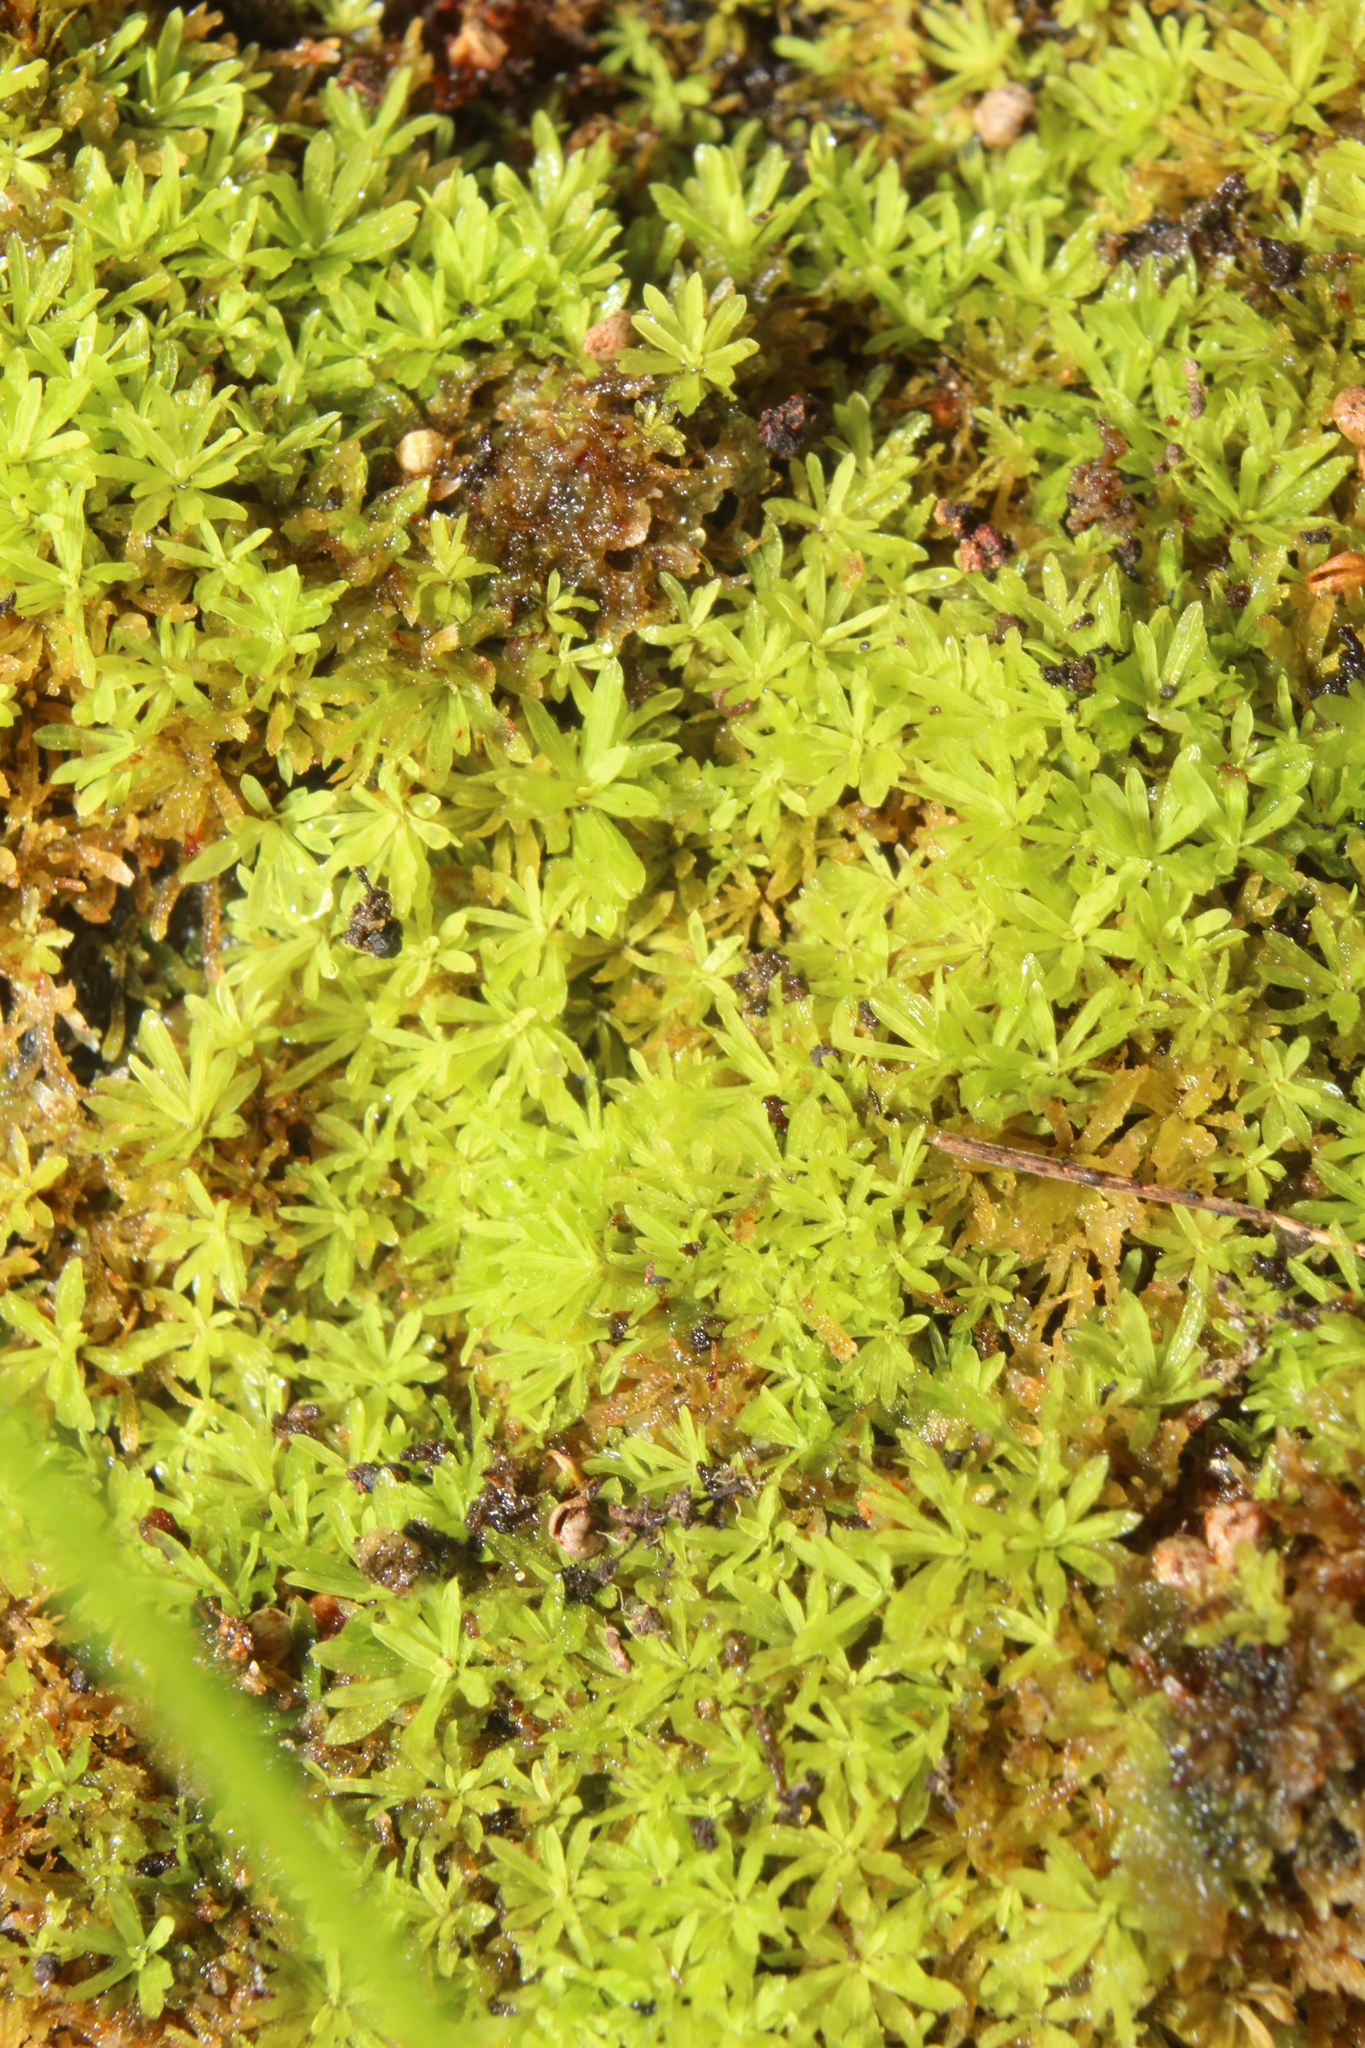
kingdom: Plantae
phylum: Bryophyta
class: Bryopsida
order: Pottiales
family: Pottiaceae
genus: Calymperastrum
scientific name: Calymperastrum latifolium
